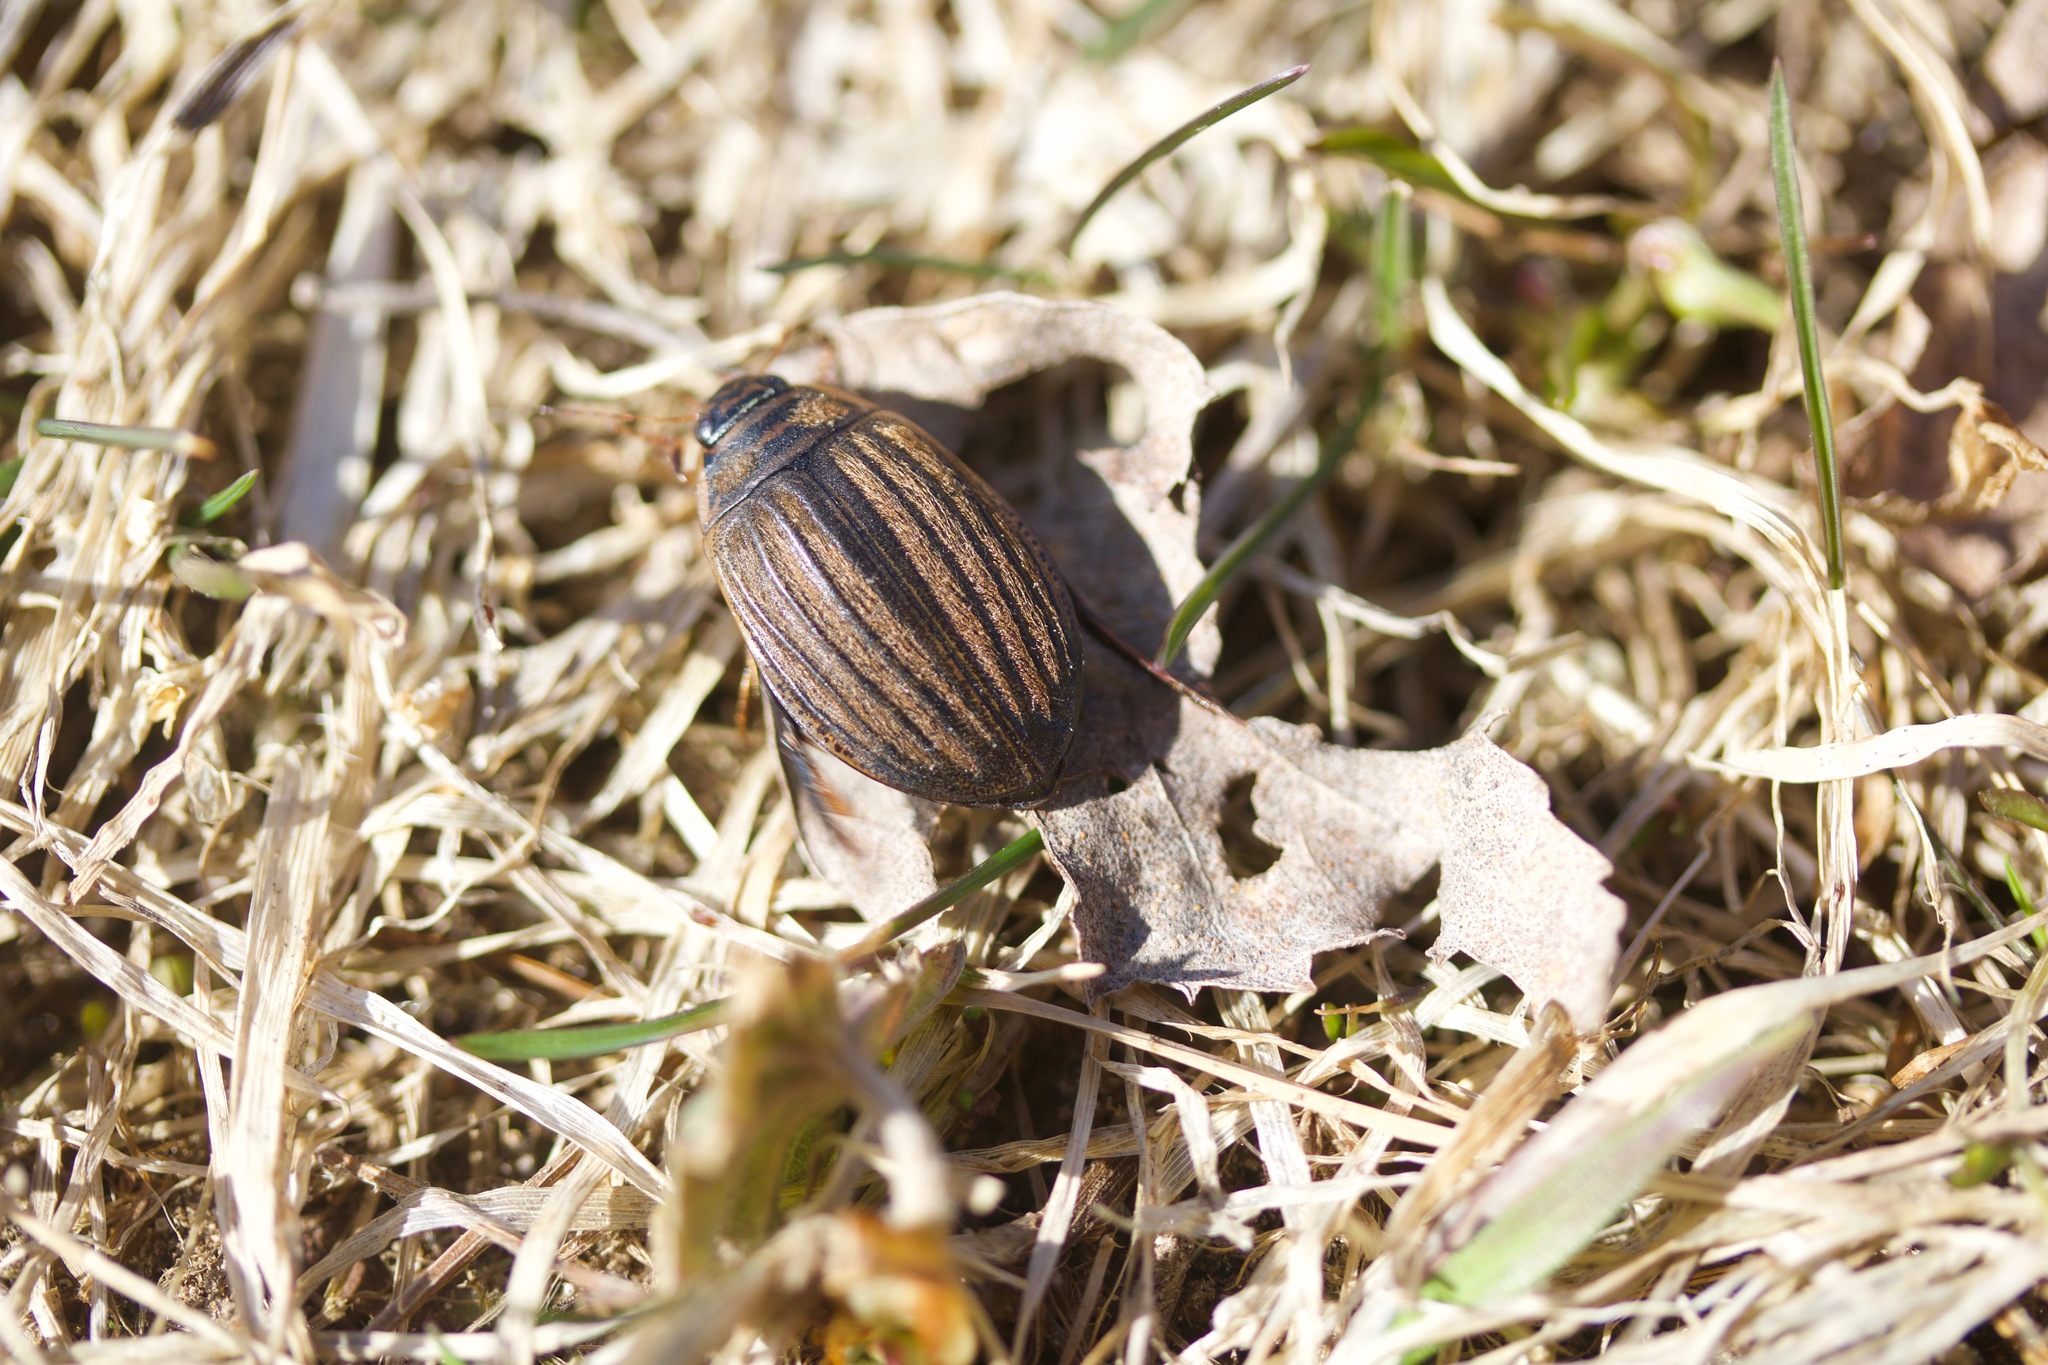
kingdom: Animalia
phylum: Arthropoda
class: Insecta
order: Coleoptera
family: Dytiscidae
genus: Acilius
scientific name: Acilius sulcatus
